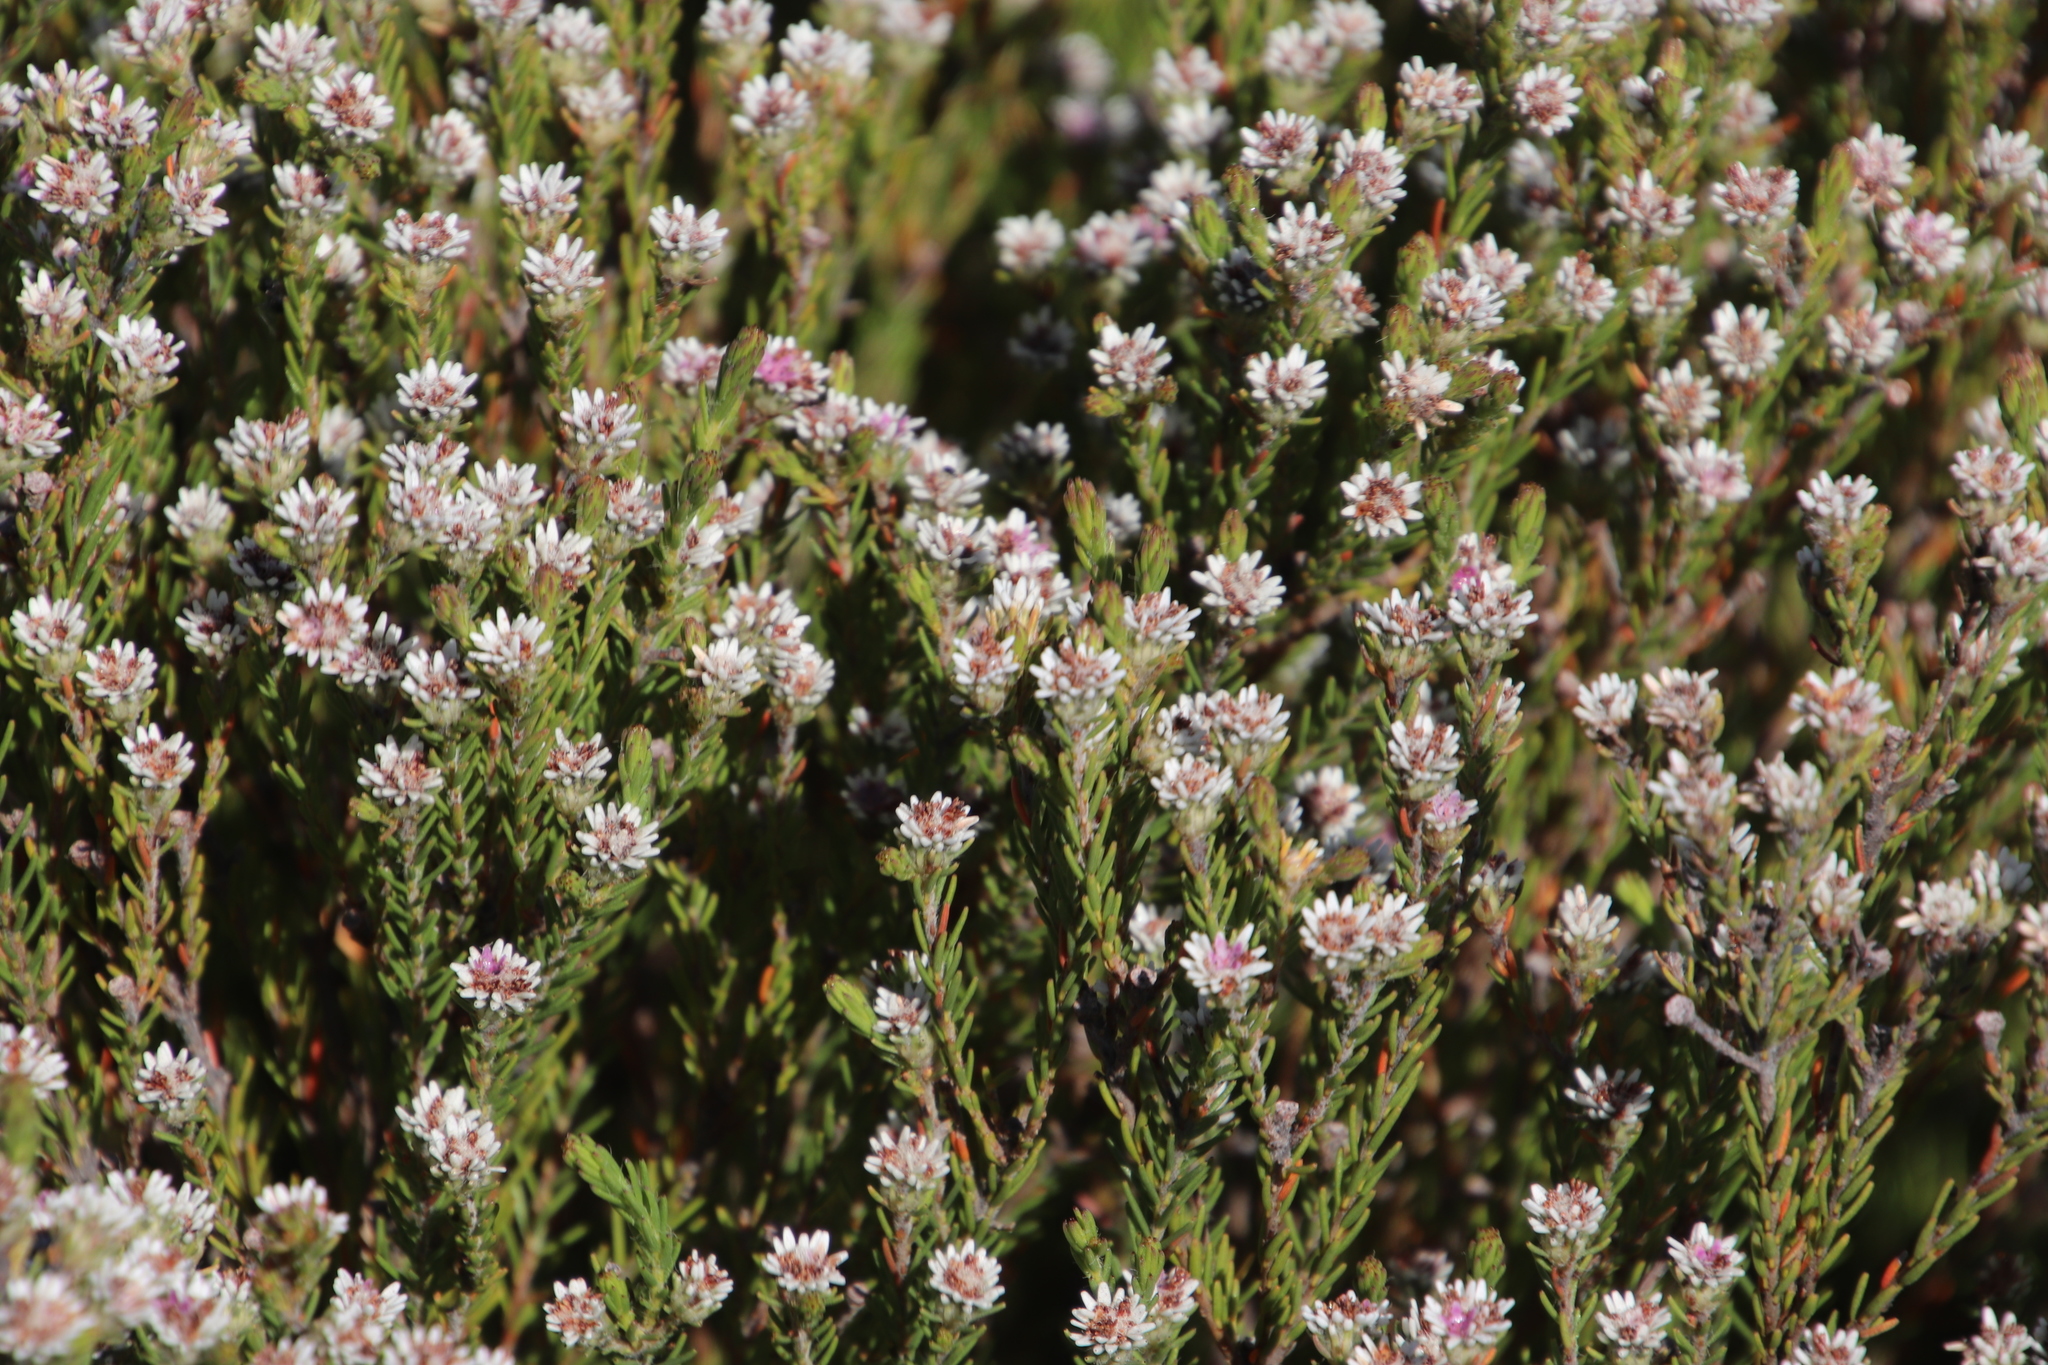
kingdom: Plantae
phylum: Tracheophyta
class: Magnoliopsida
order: Bruniales
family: Bruniaceae
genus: Staavia
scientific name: Staavia radiata
